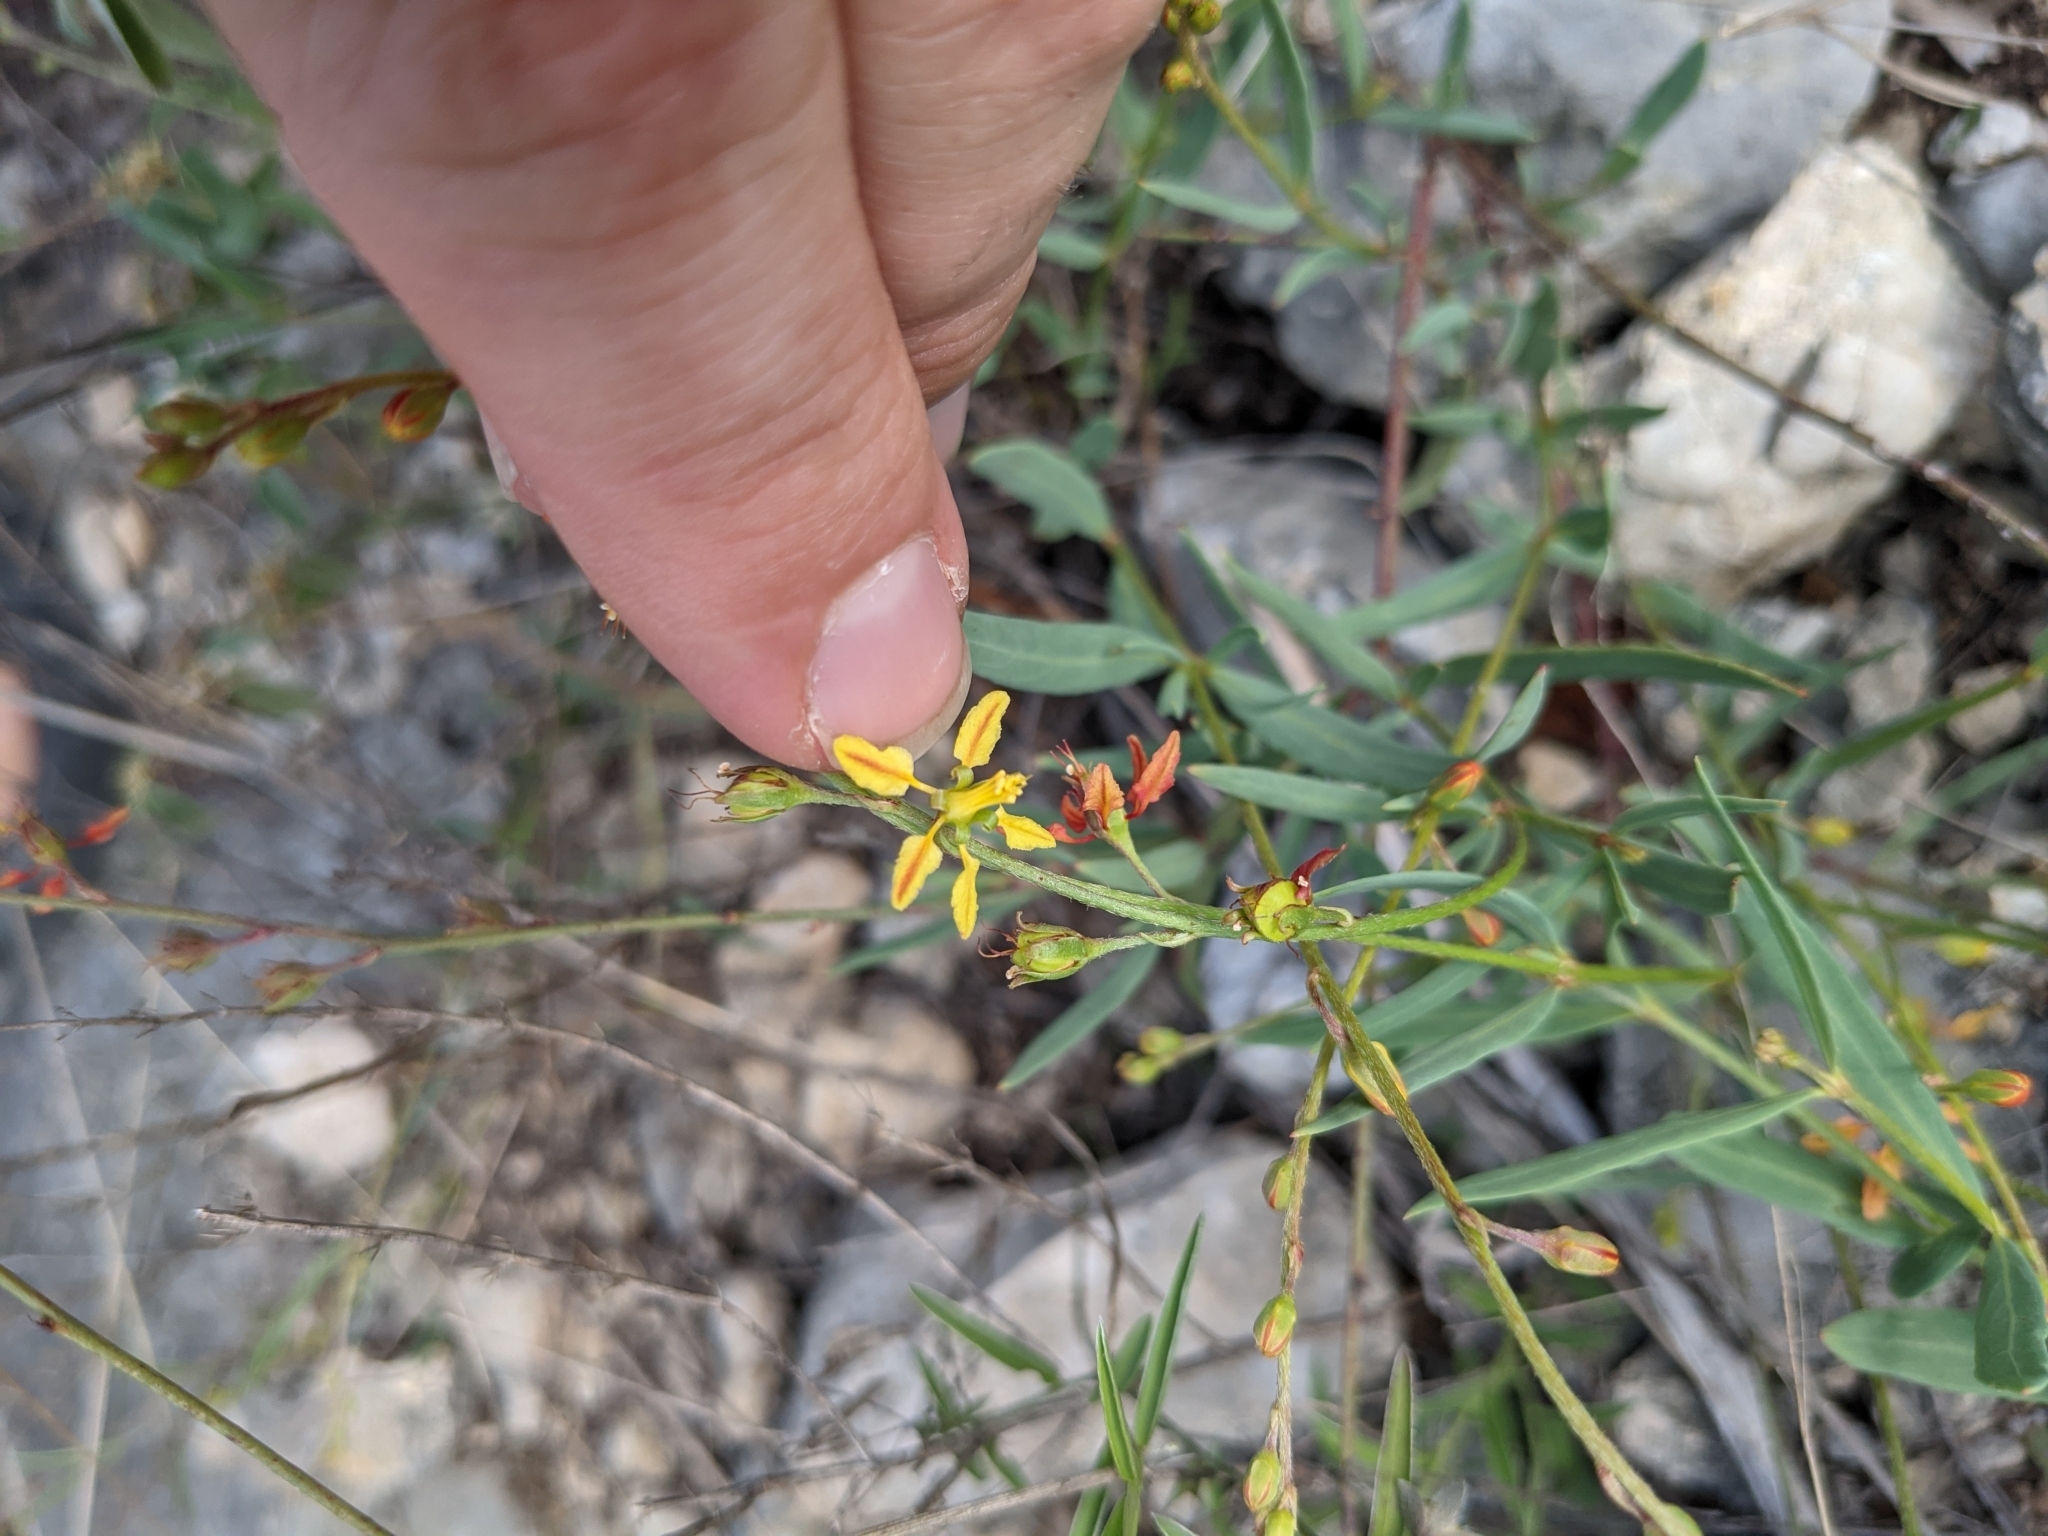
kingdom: Plantae
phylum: Tracheophyta
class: Magnoliopsida
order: Malpighiales
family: Malpighiaceae
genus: Galphimia
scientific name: Galphimia angustifolia
